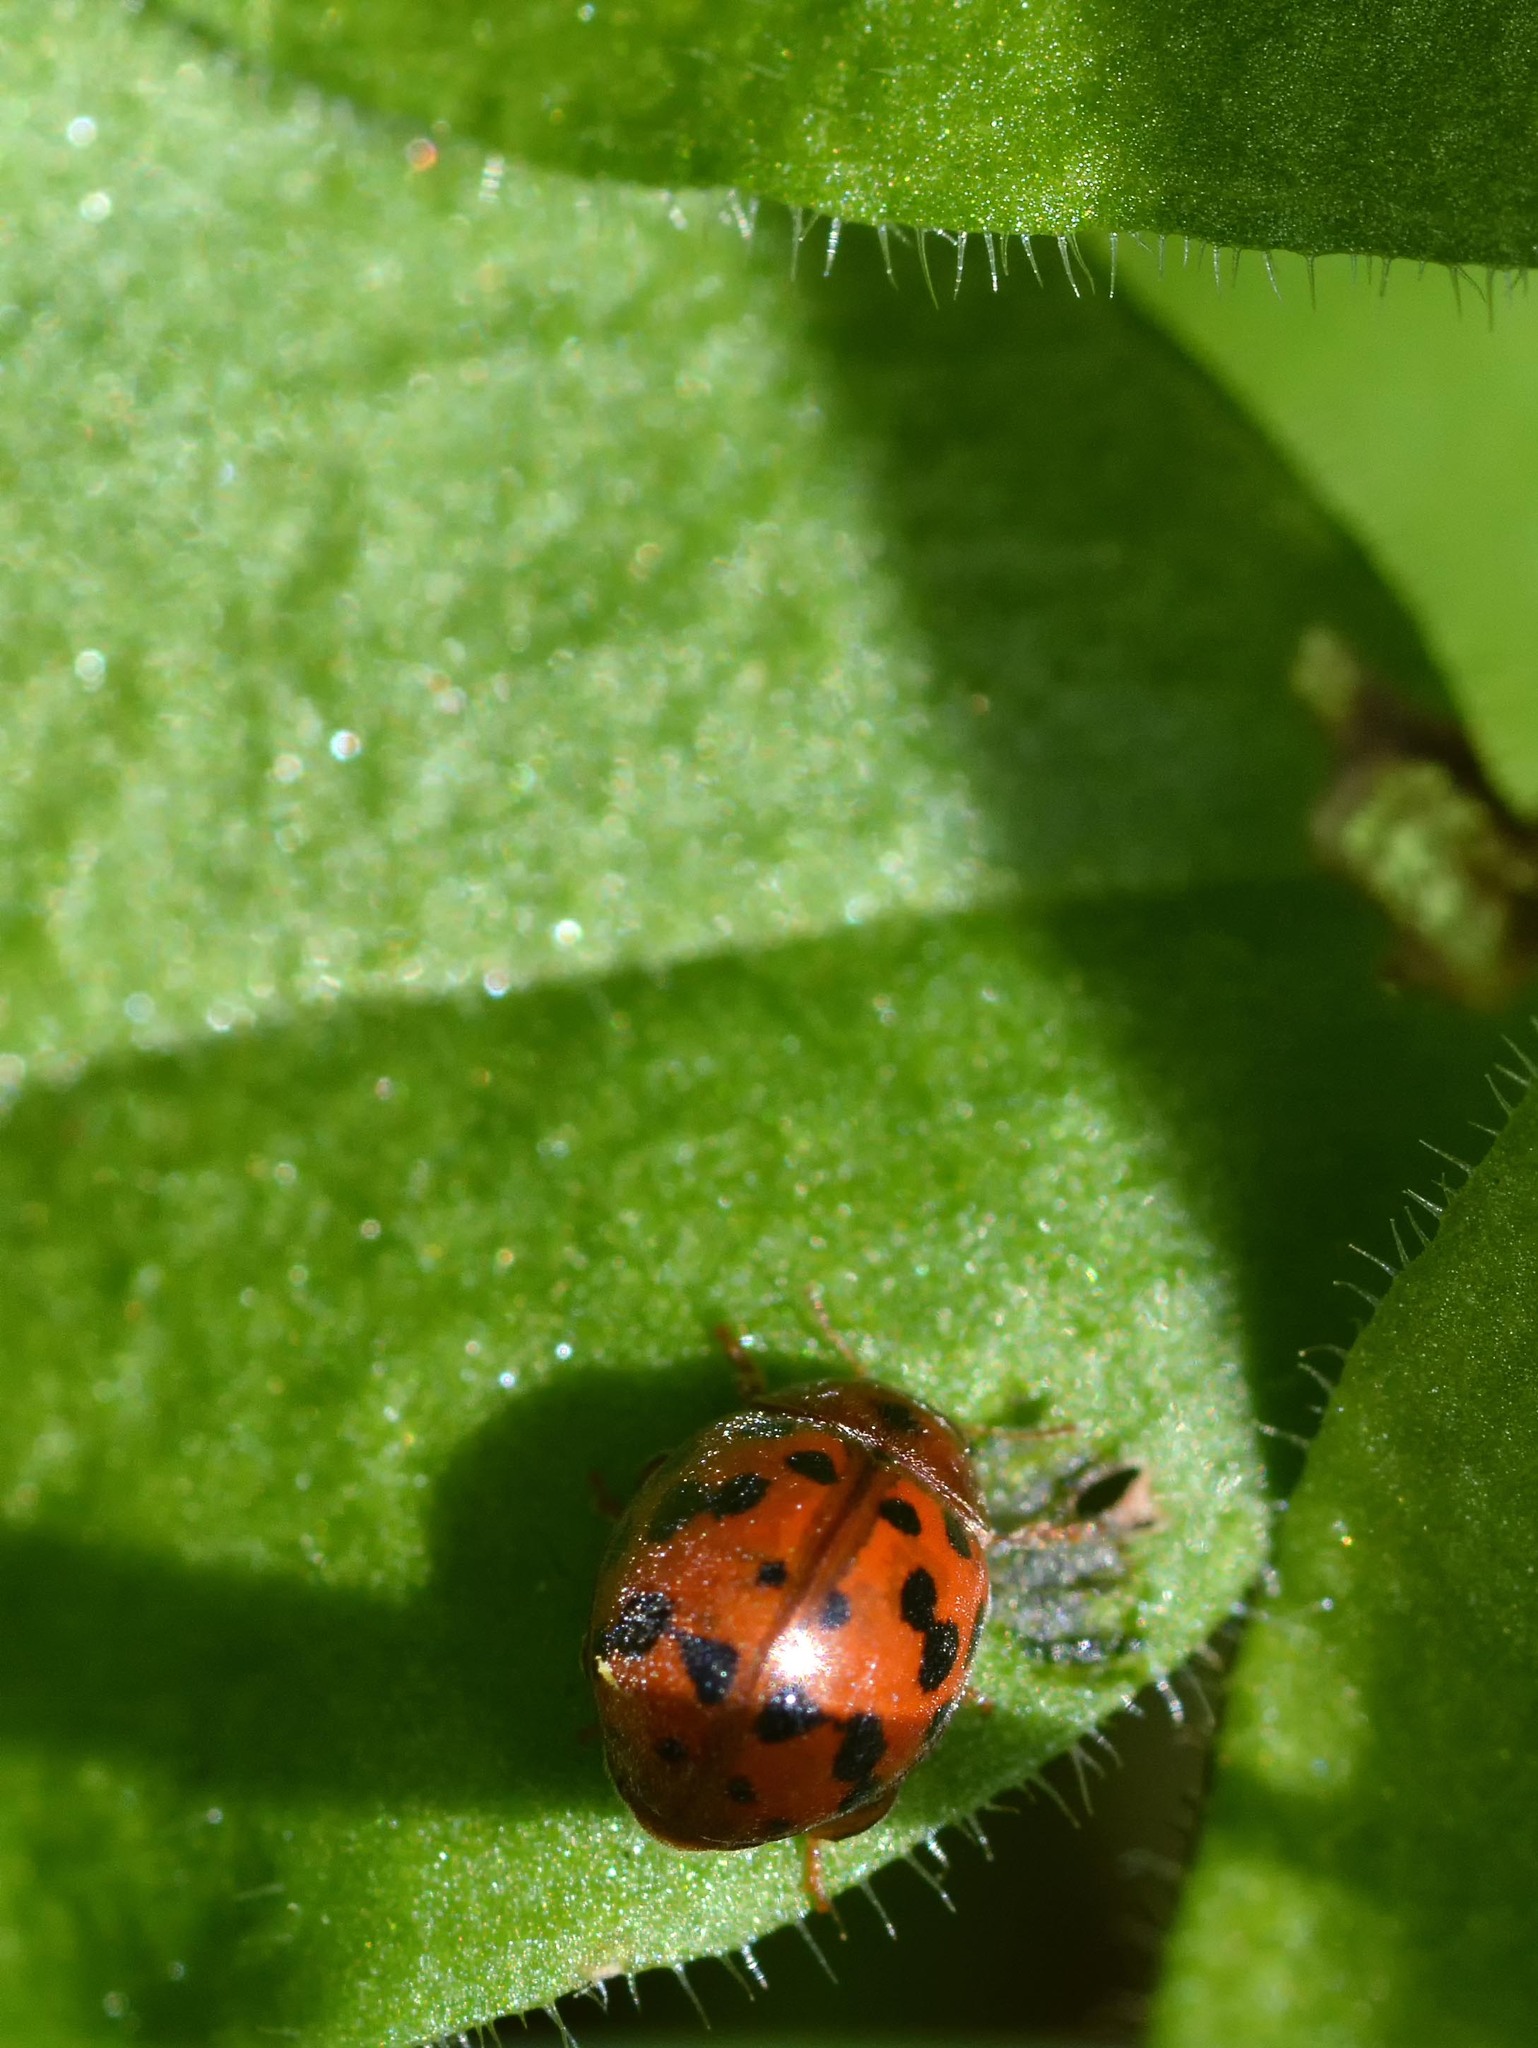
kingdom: Animalia
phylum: Arthropoda
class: Insecta
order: Coleoptera
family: Coccinellidae
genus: Subcoccinella
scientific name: Subcoccinella vigintiquatuorpunctata
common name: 24-spot ladybird
